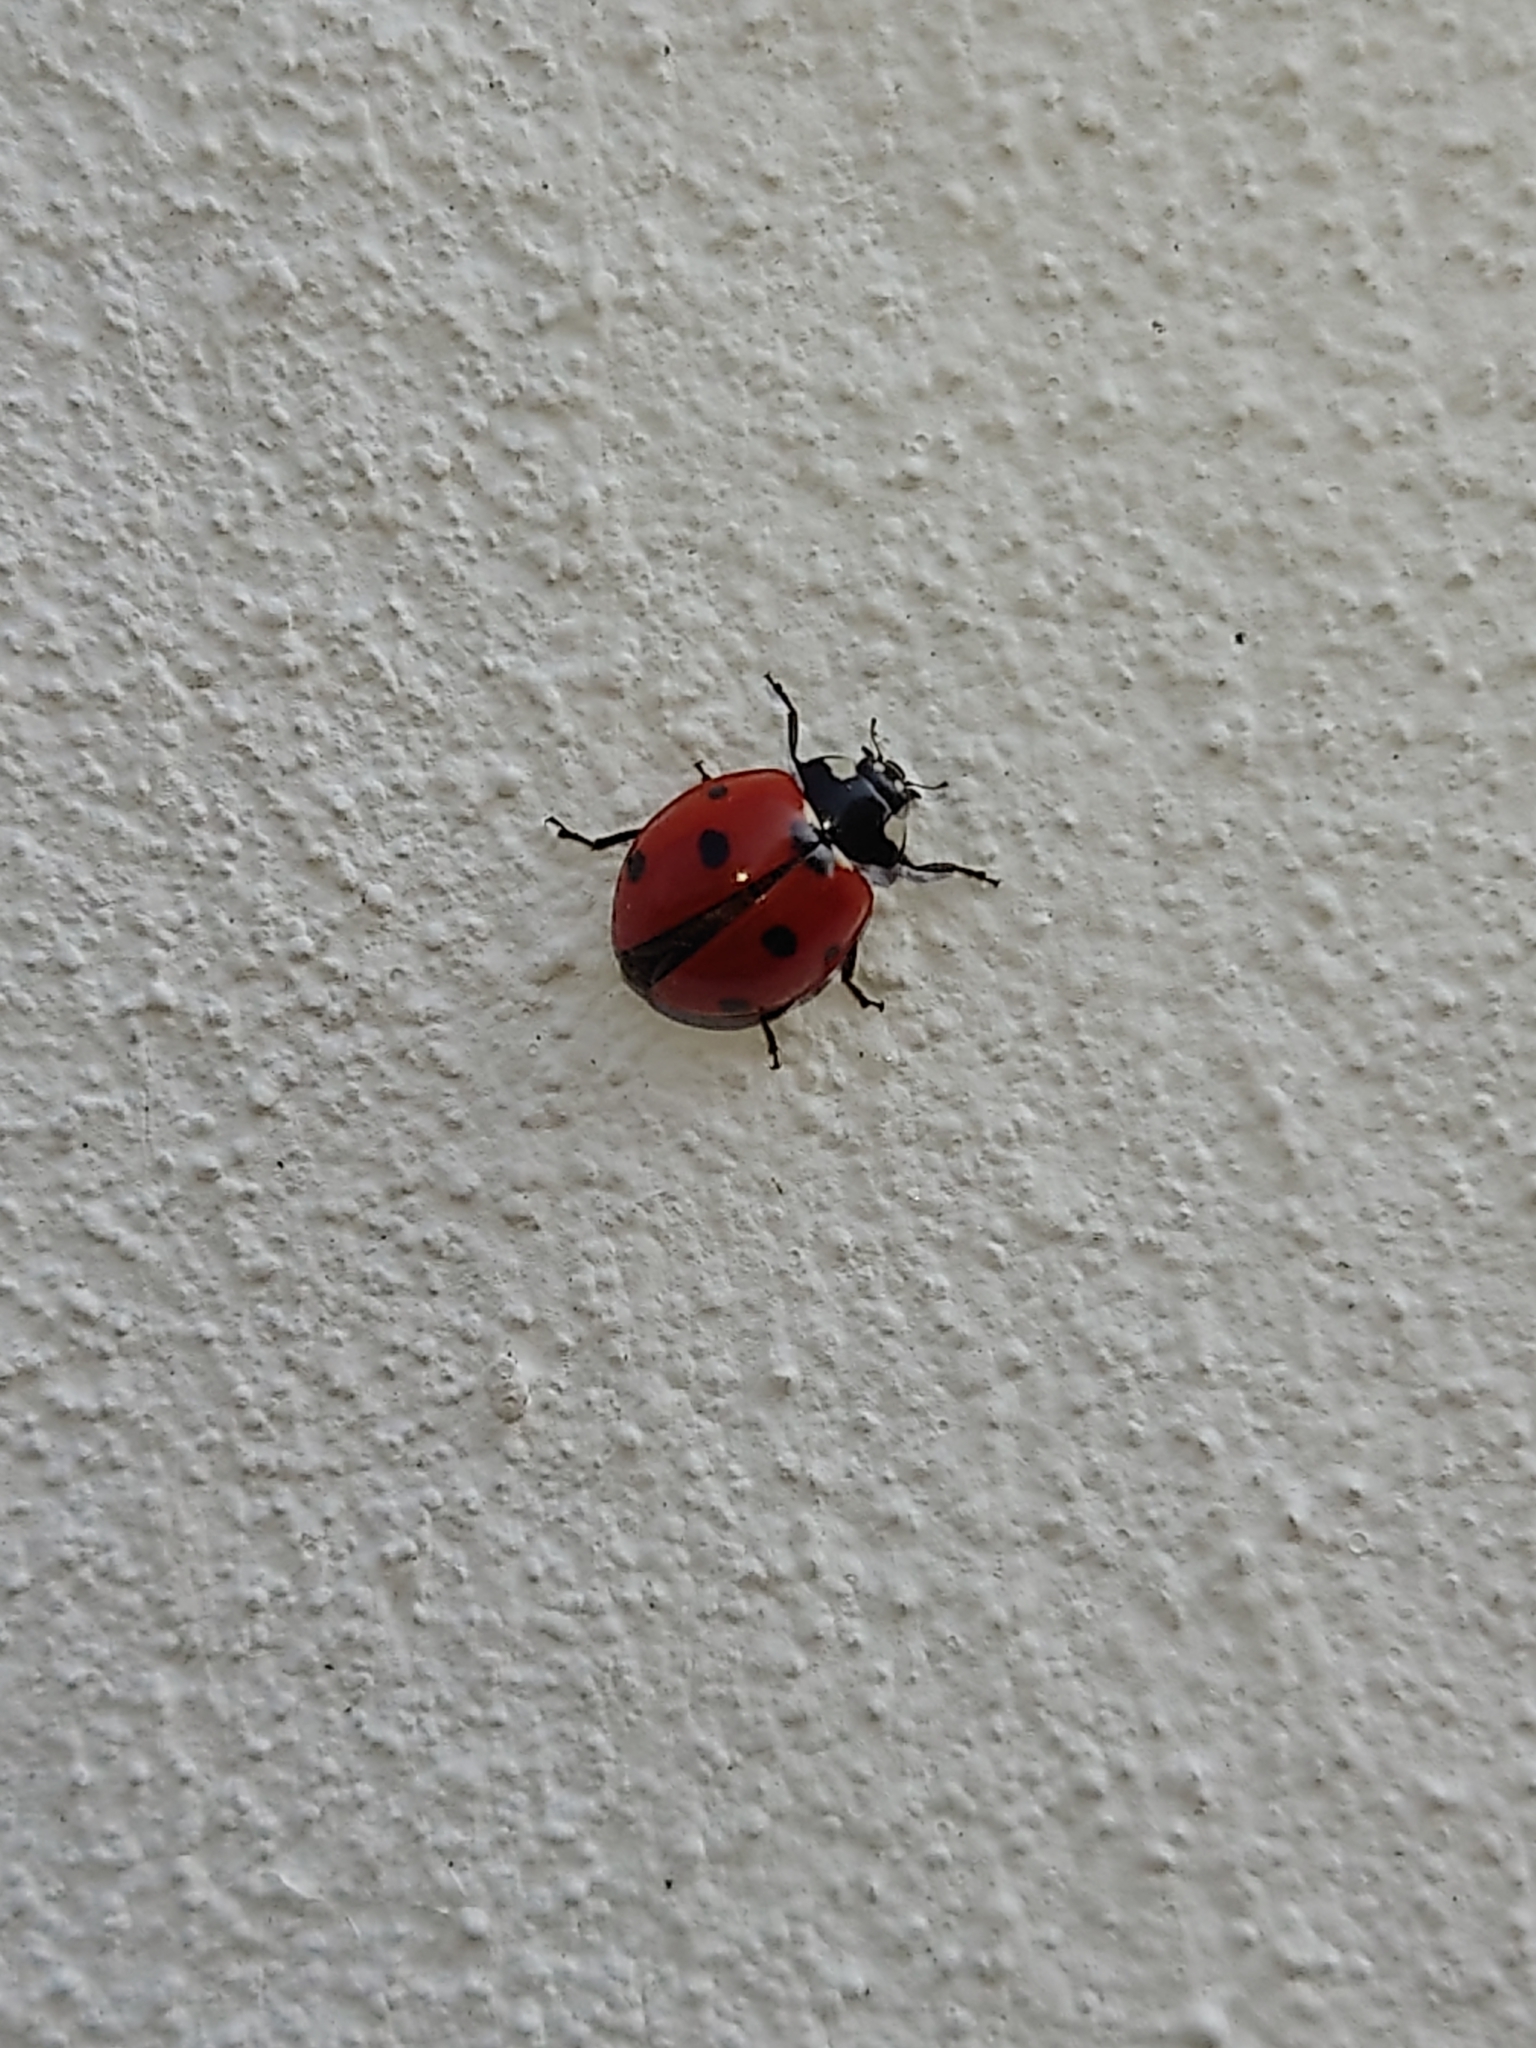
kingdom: Animalia
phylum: Arthropoda
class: Insecta
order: Coleoptera
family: Coccinellidae
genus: Coccinella
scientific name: Coccinella septempunctata
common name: Sevenspotted lady beetle
